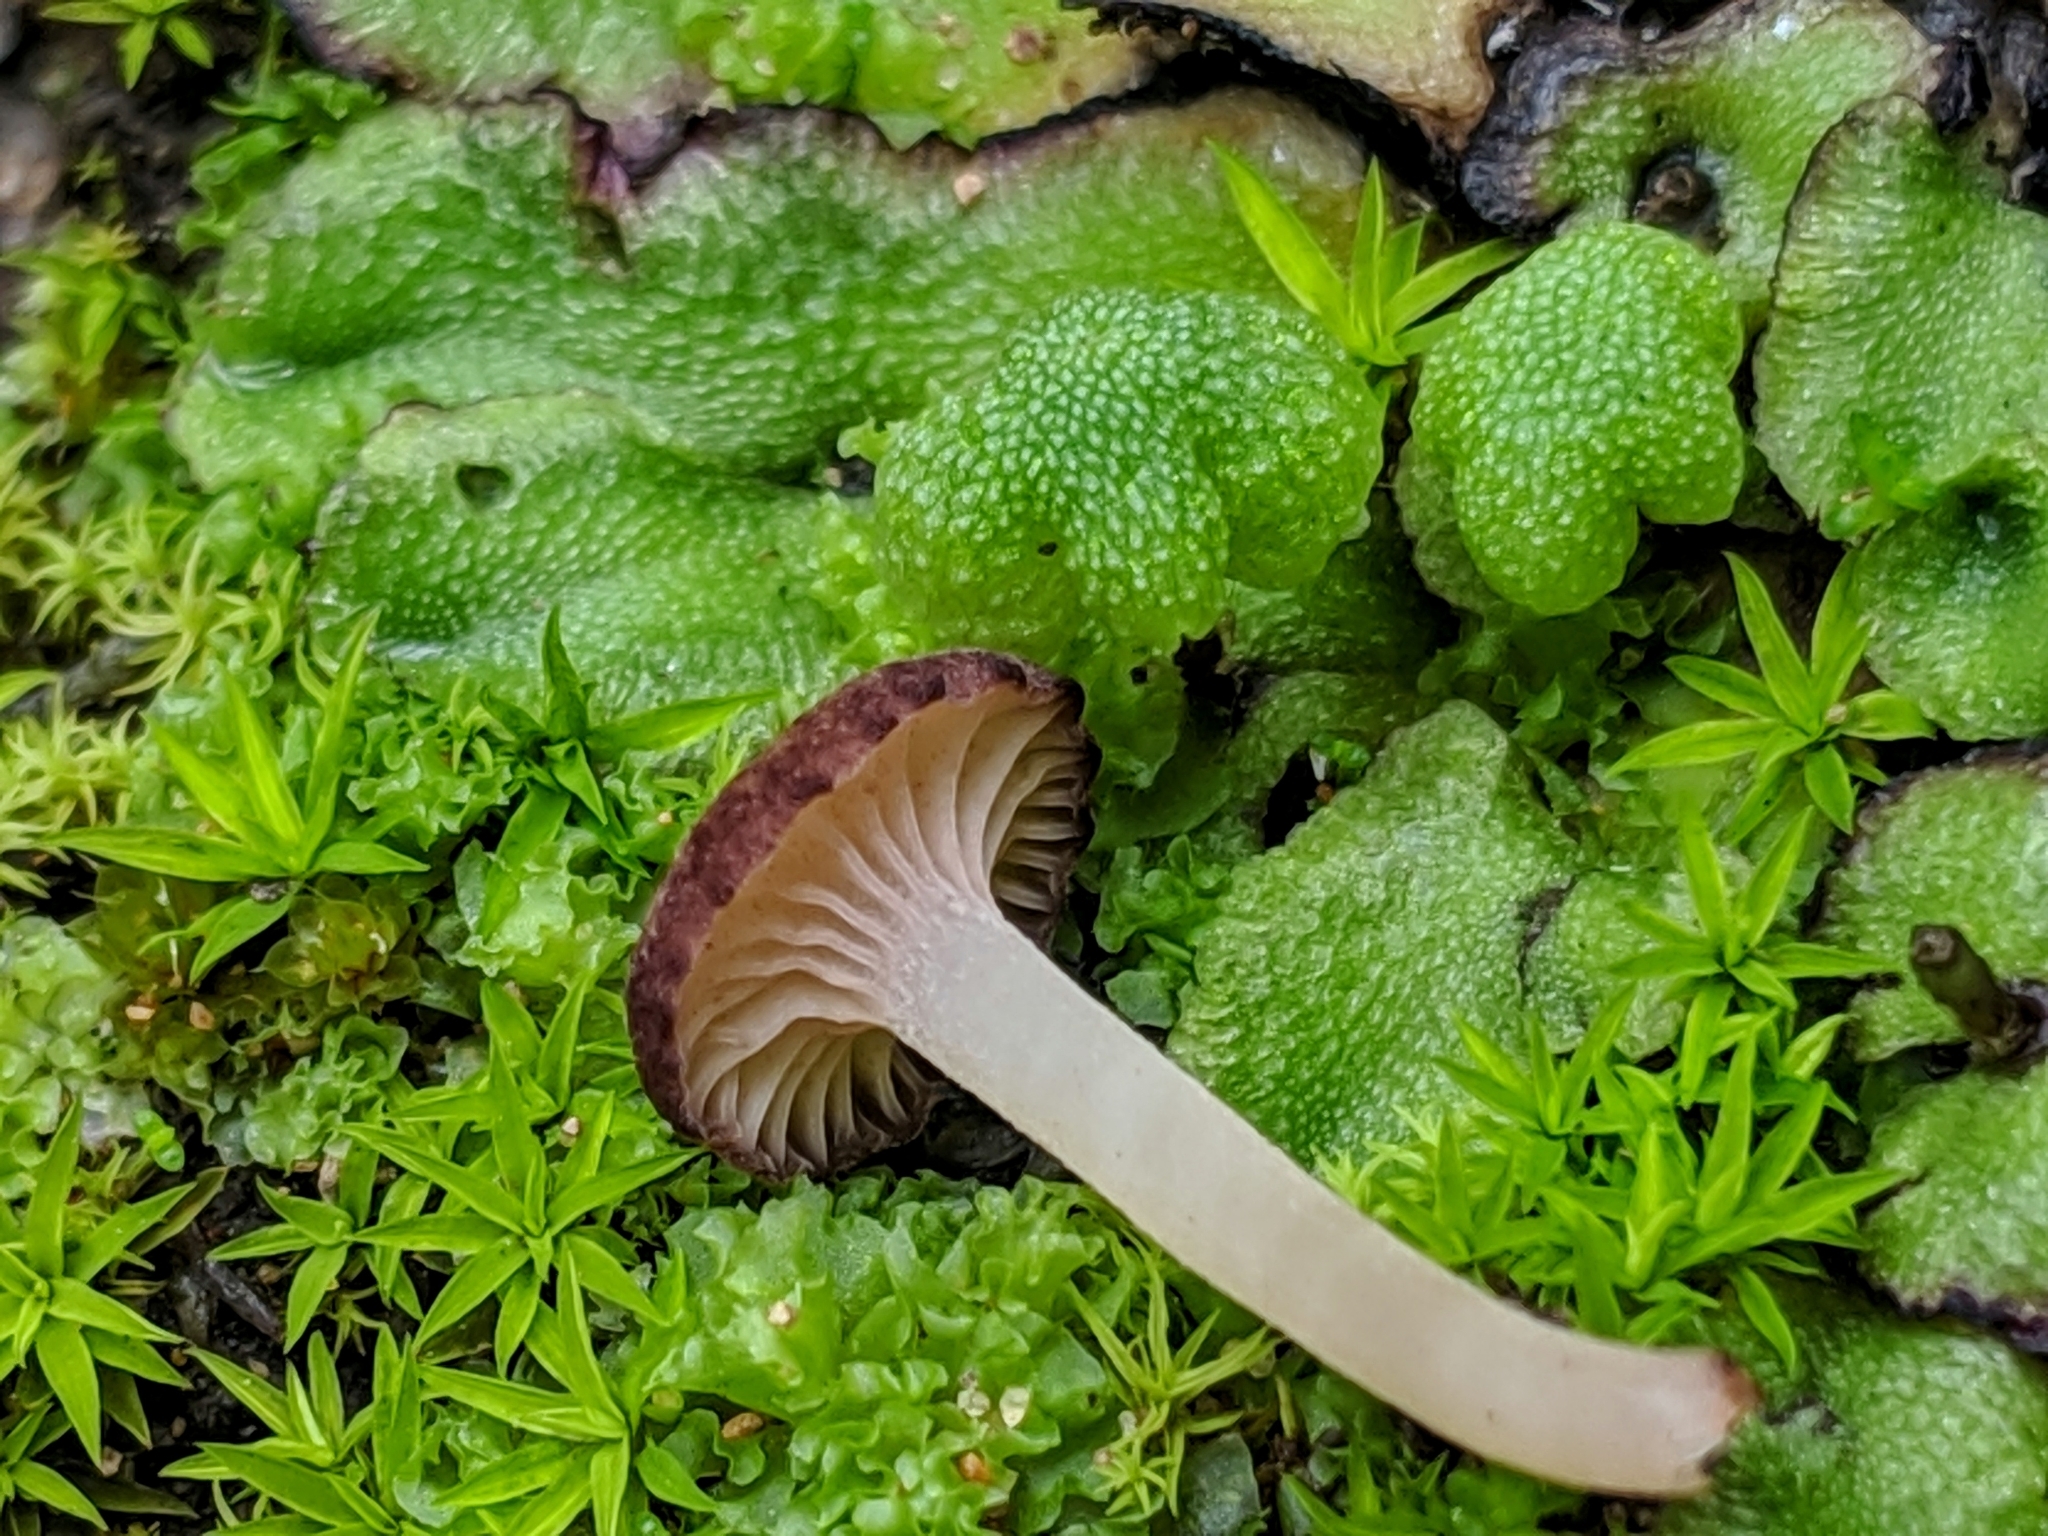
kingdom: Fungi
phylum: Basidiomycota
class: Agaricomycetes
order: Hymenochaetales
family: Rickenellaceae
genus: Contumyces
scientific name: Contumyces rosellus
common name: Rosy navel
